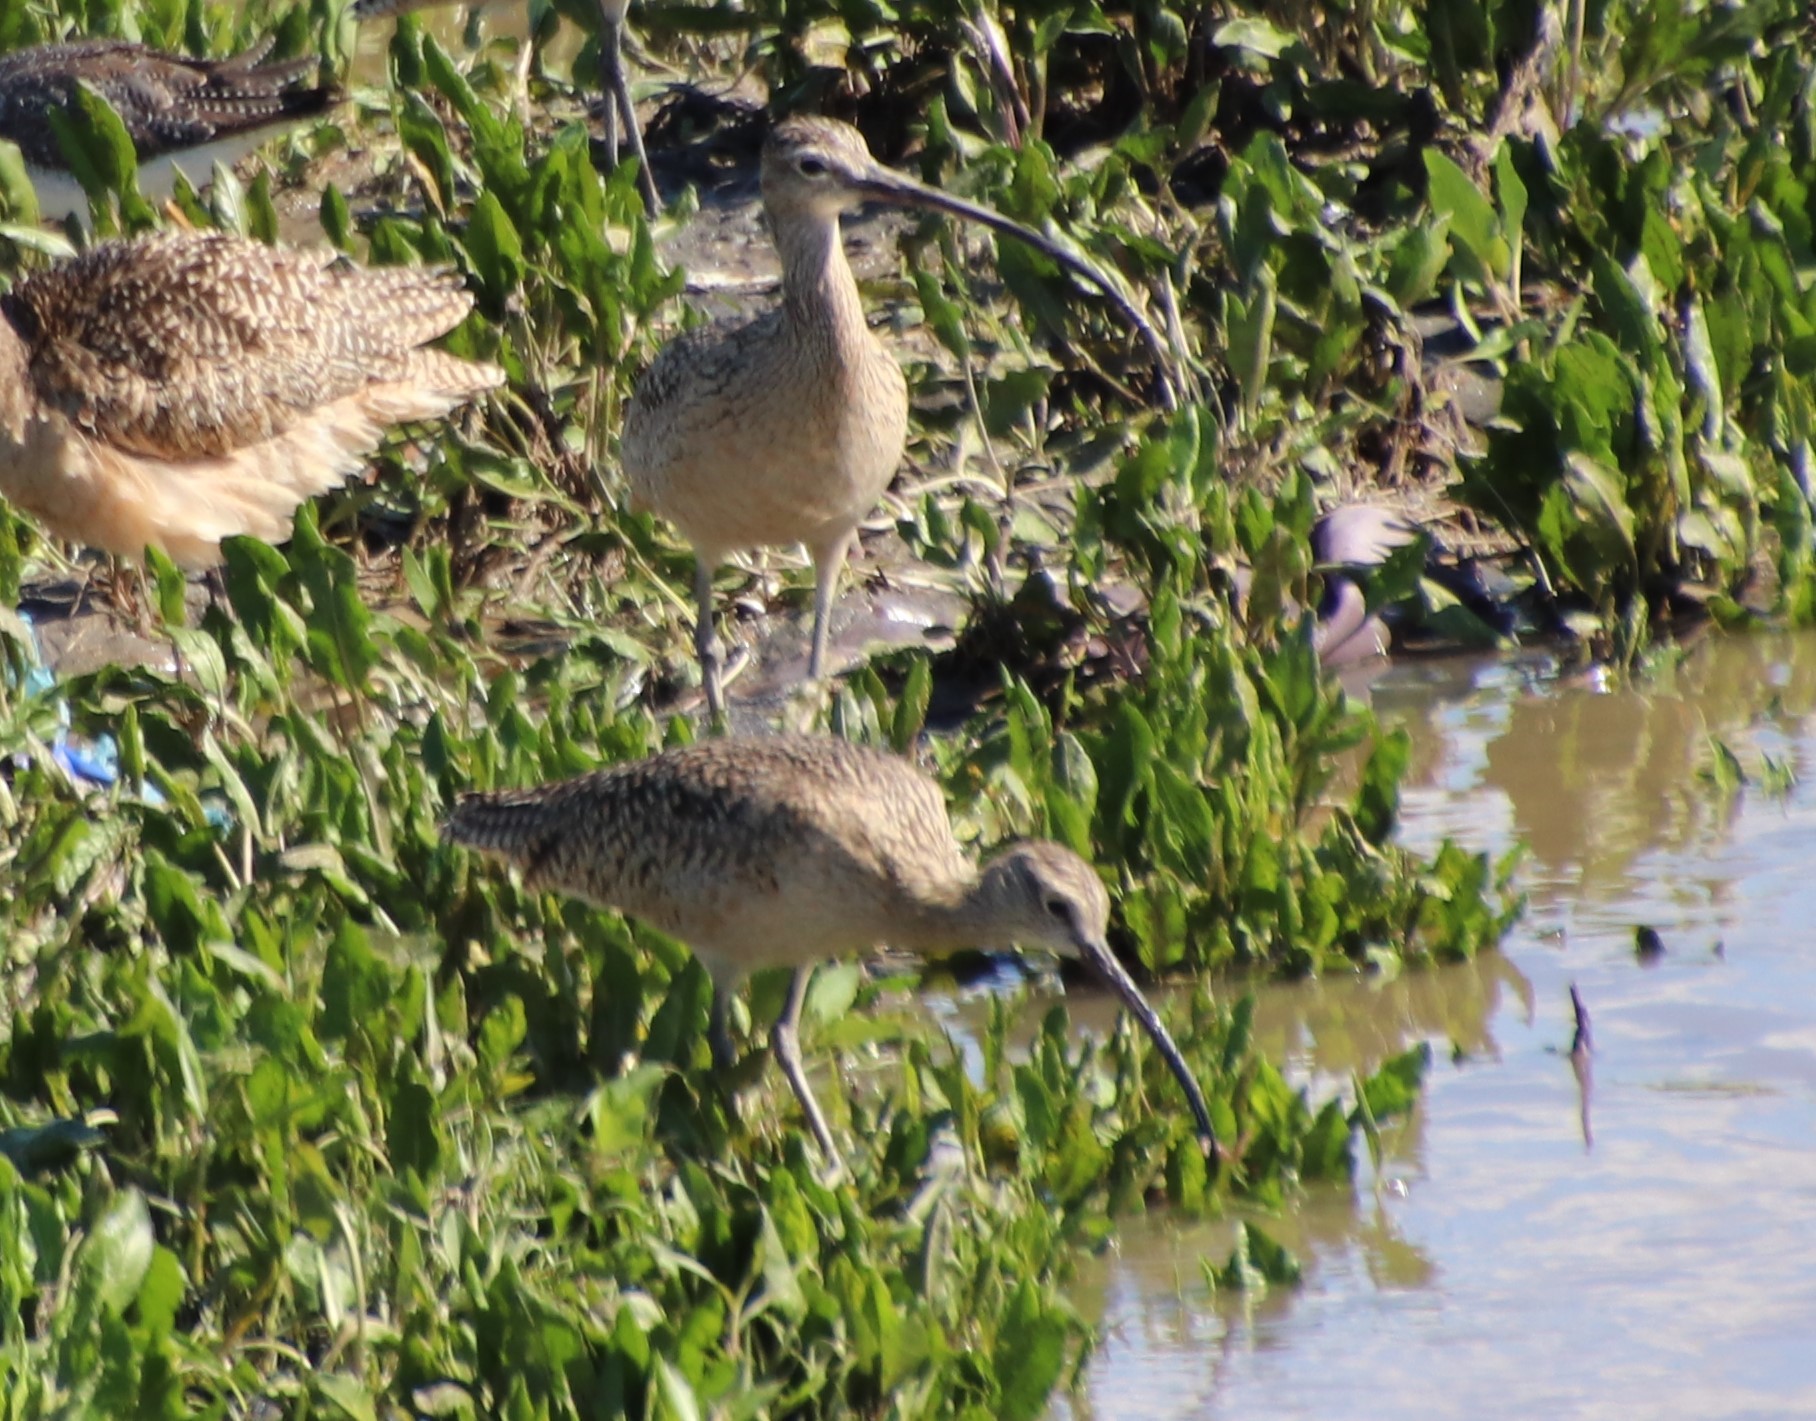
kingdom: Animalia
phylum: Chordata
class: Aves
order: Charadriiformes
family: Scolopacidae
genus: Numenius
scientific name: Numenius americanus
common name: Long-billed curlew
